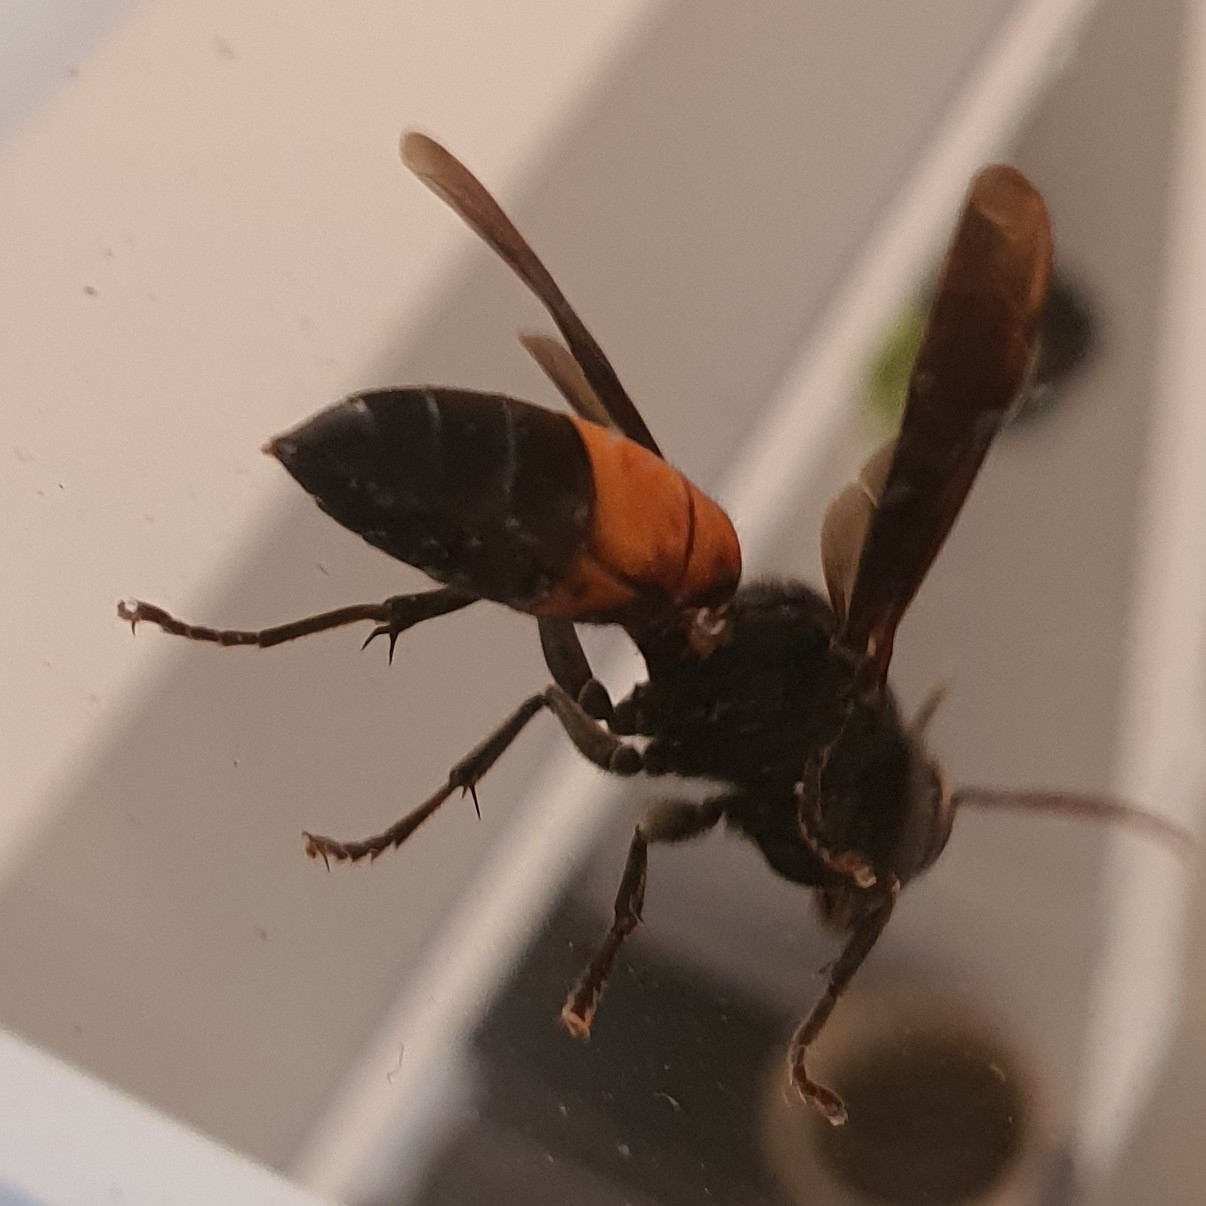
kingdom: Animalia
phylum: Arthropoda
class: Insecta
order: Hymenoptera
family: Vespidae
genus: Vespa
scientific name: Vespa affinis
